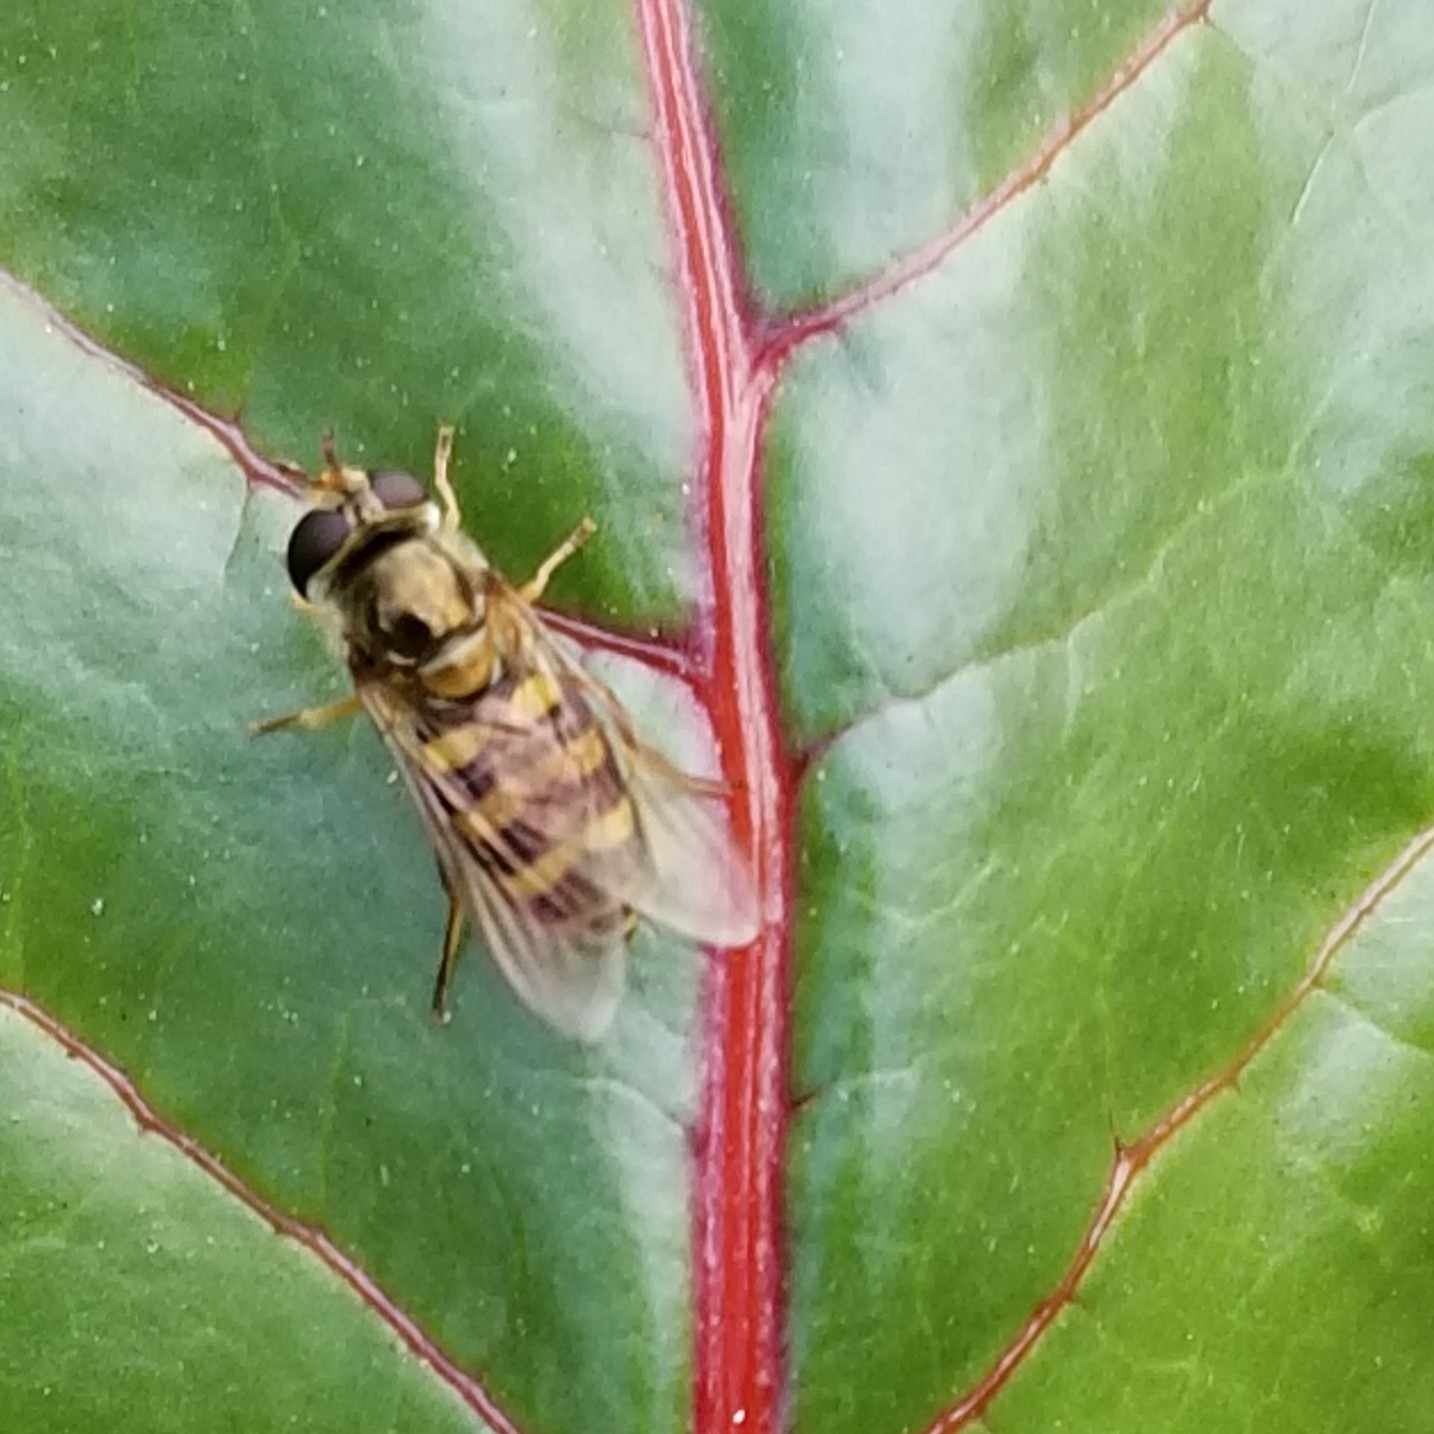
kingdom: Animalia
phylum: Arthropoda
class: Insecta
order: Diptera
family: Syrphidae
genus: Eupeodes
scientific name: Eupeodes fumipennis
